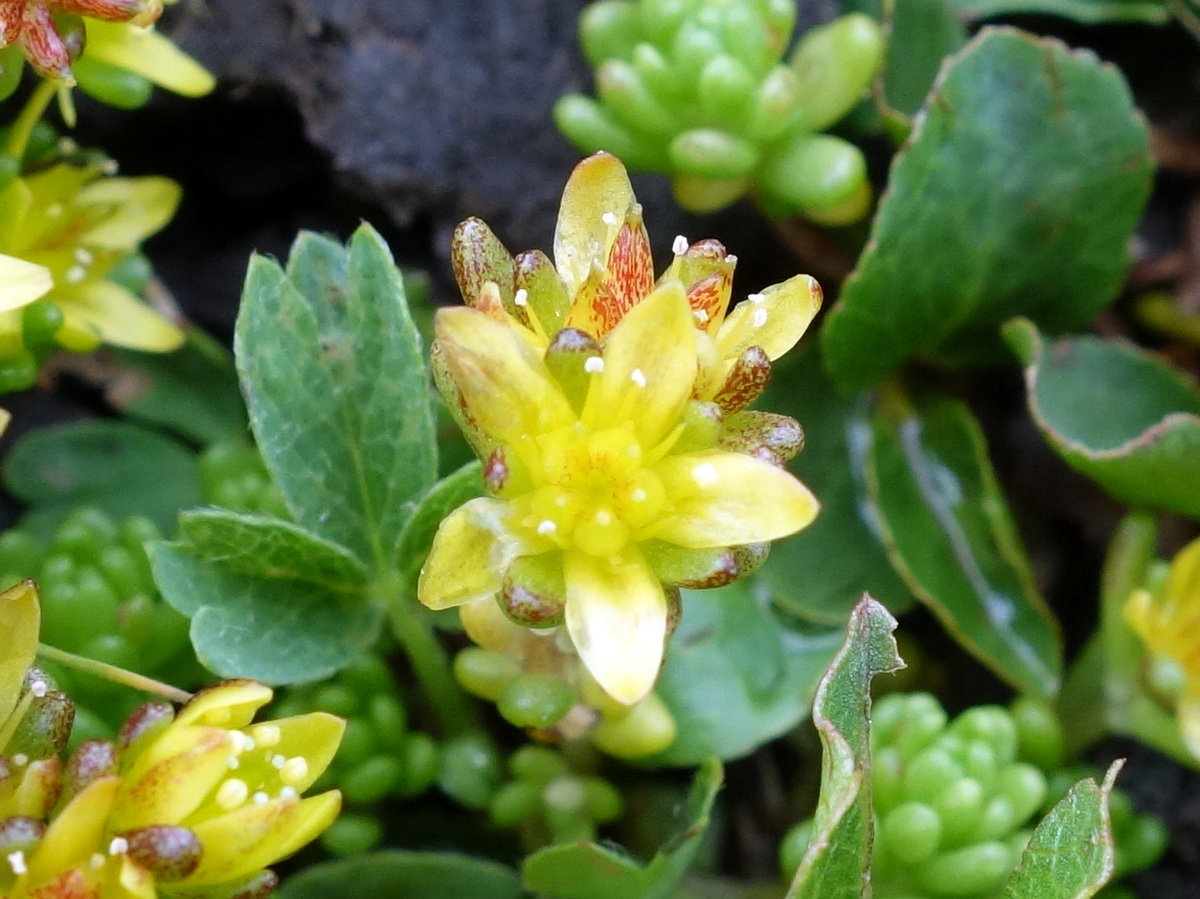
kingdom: Plantae
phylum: Tracheophyta
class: Magnoliopsida
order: Saxifragales
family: Crassulaceae
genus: Sedum
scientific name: Sedum alpestre
